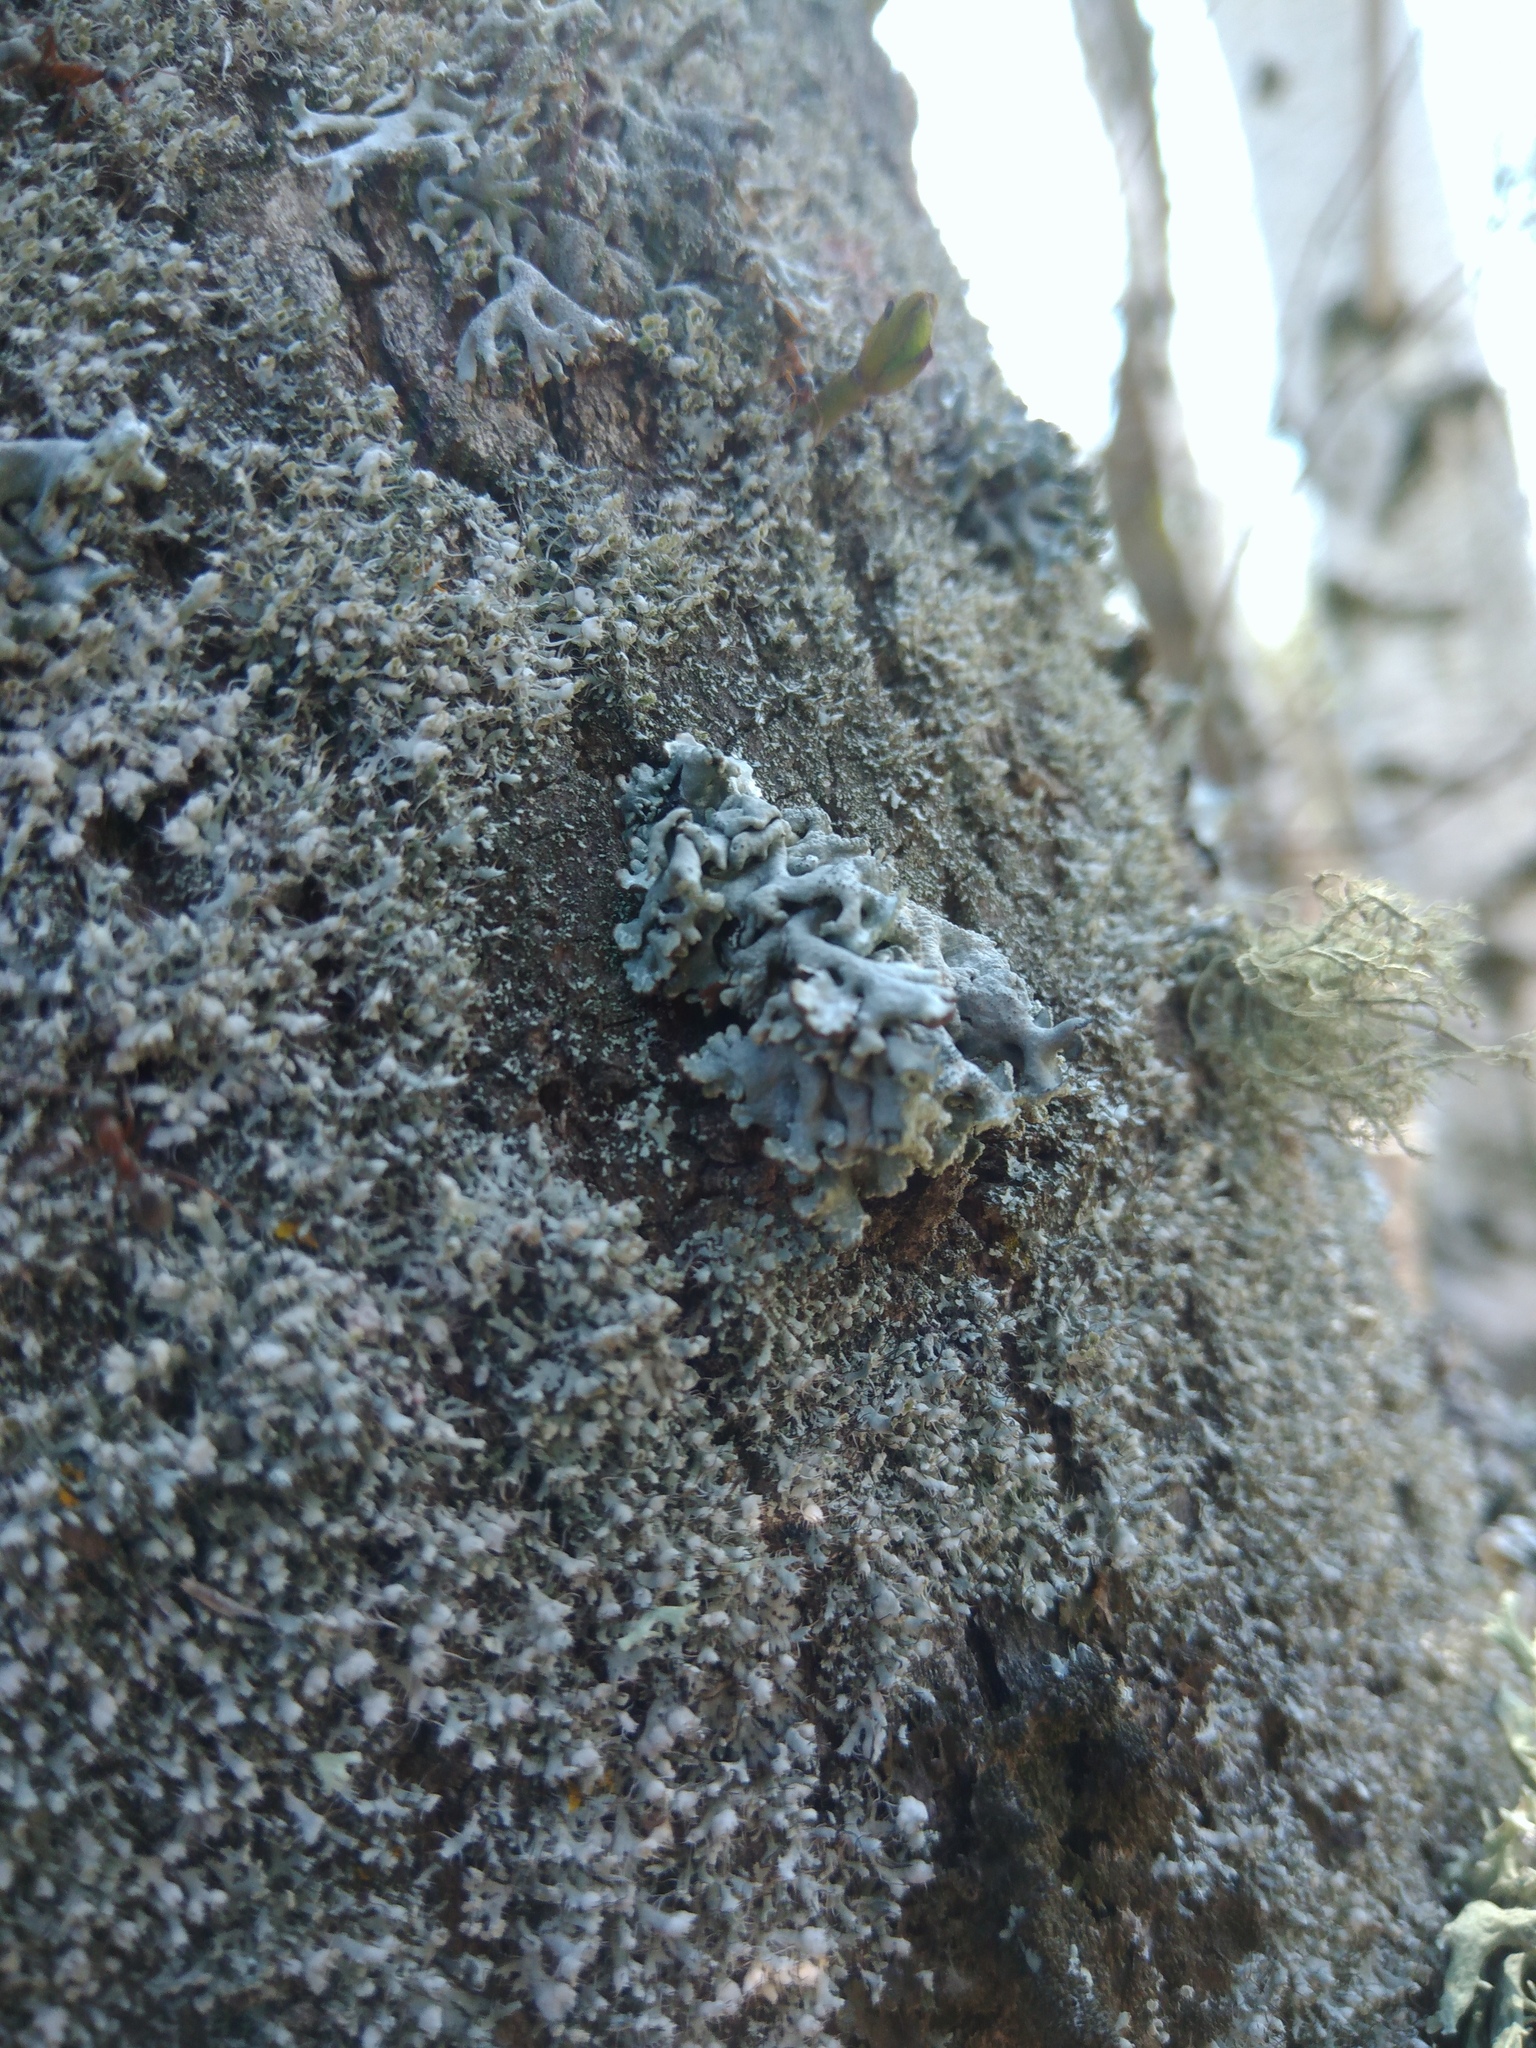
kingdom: Fungi
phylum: Ascomycota
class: Lecanoromycetes
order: Lecanorales
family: Parmeliaceae
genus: Hypogymnia
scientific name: Hypogymnia physodes
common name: Dark crottle
